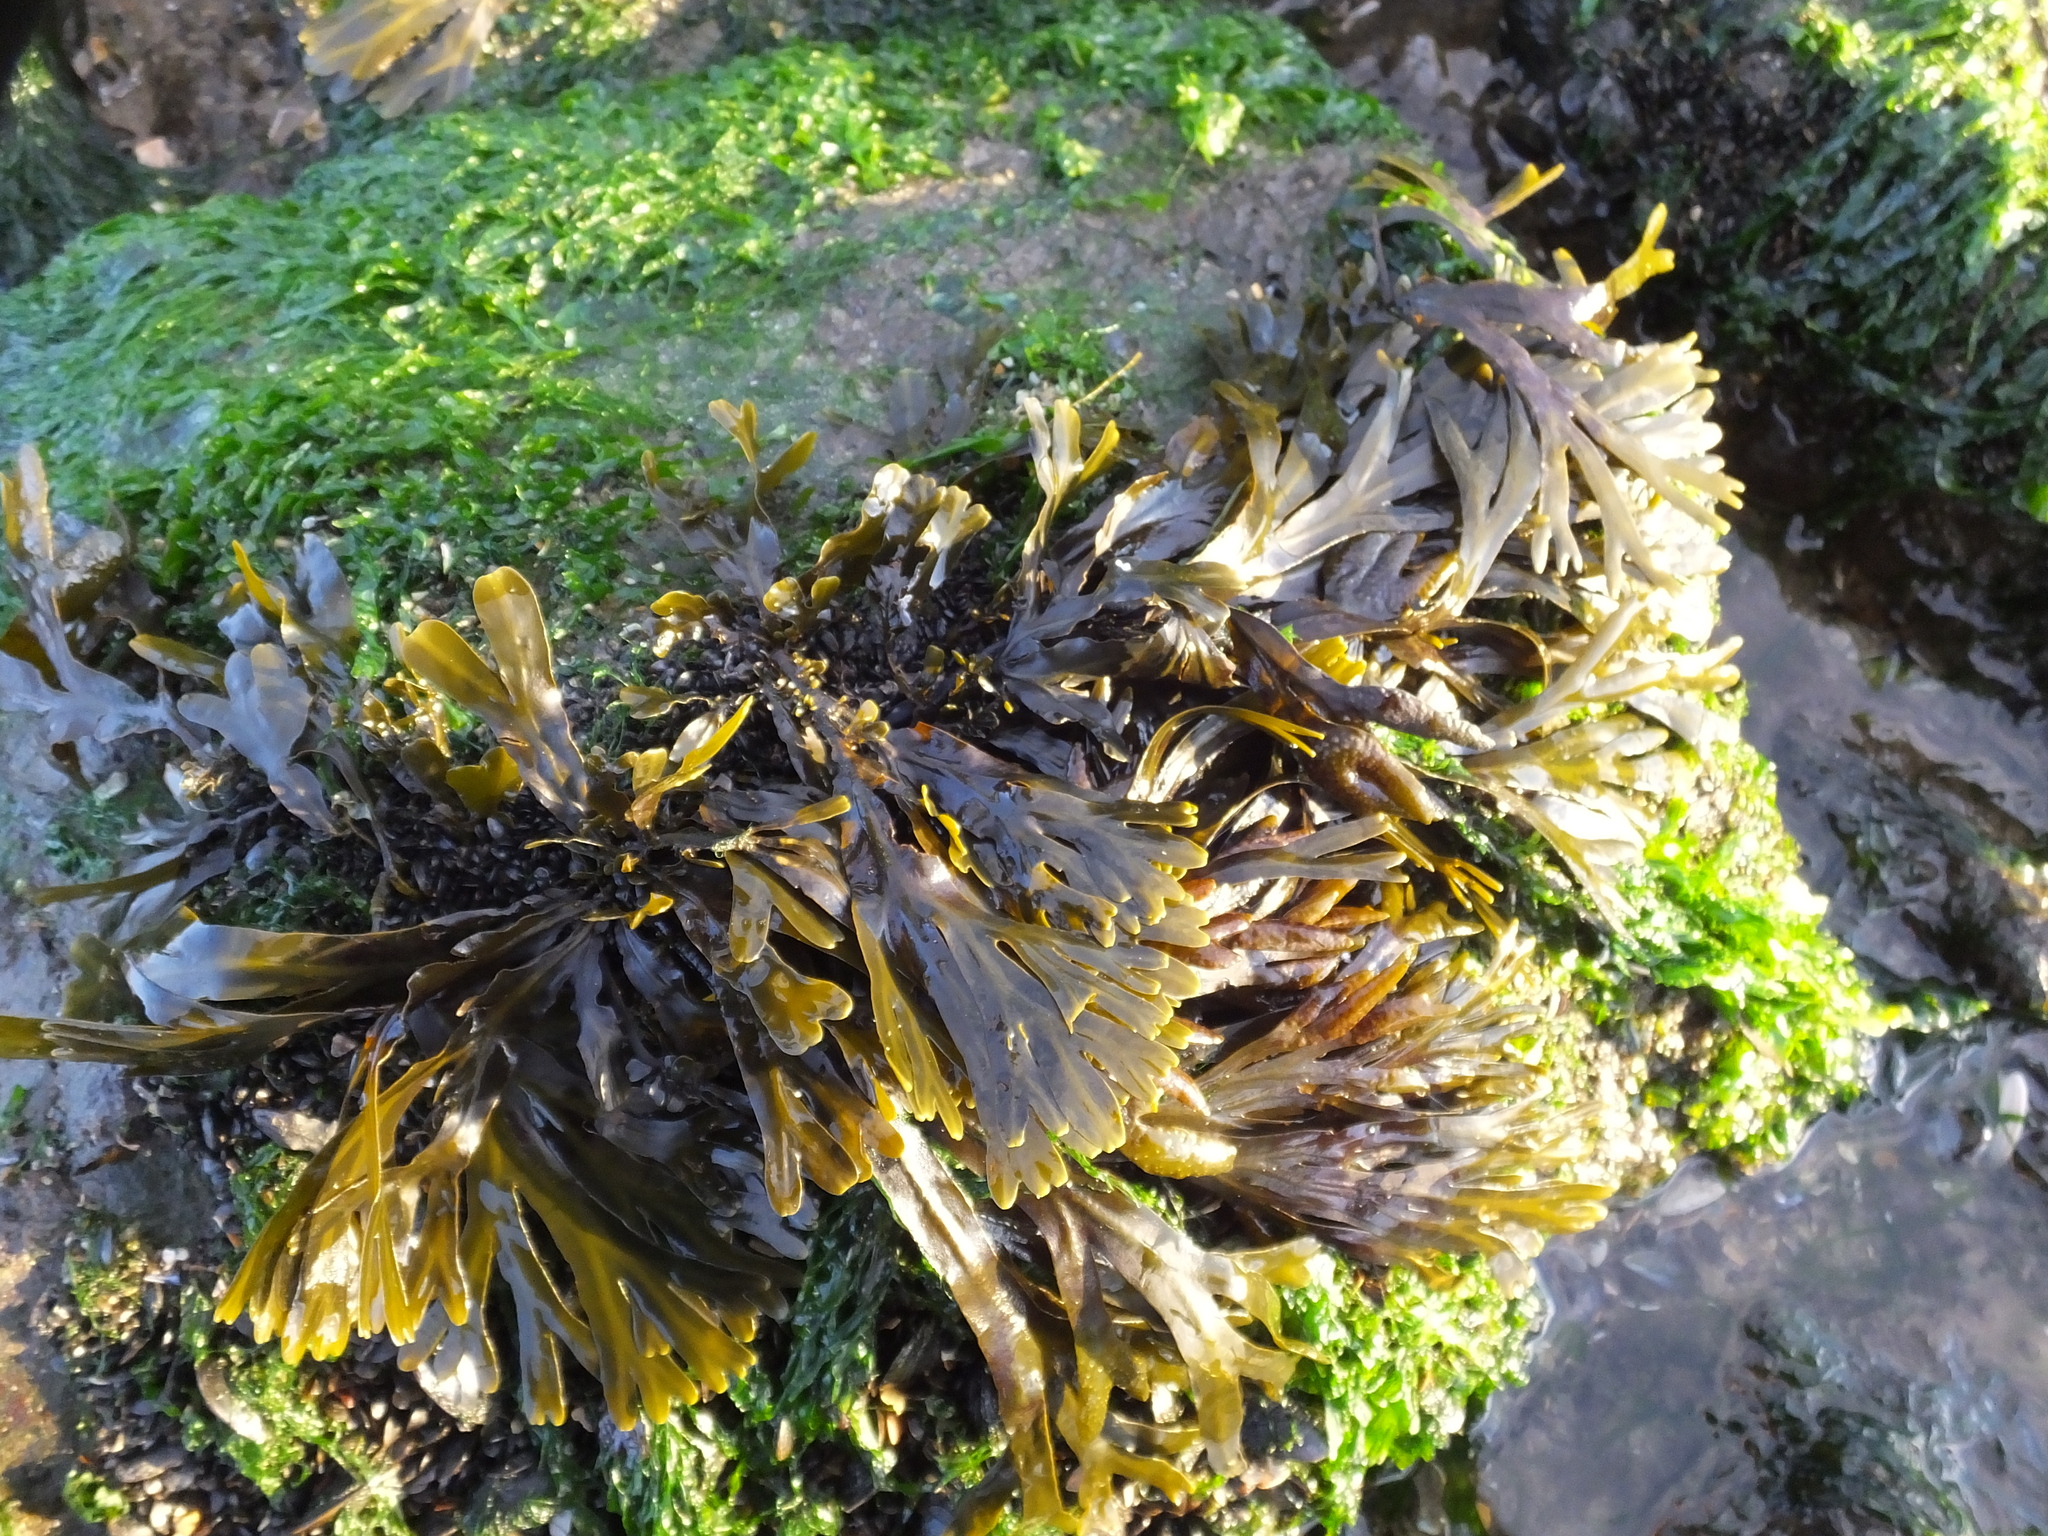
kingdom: Chromista
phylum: Ochrophyta
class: Phaeophyceae
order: Fucales
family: Fucaceae
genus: Fucus
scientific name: Fucus distichus
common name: Rockweed
